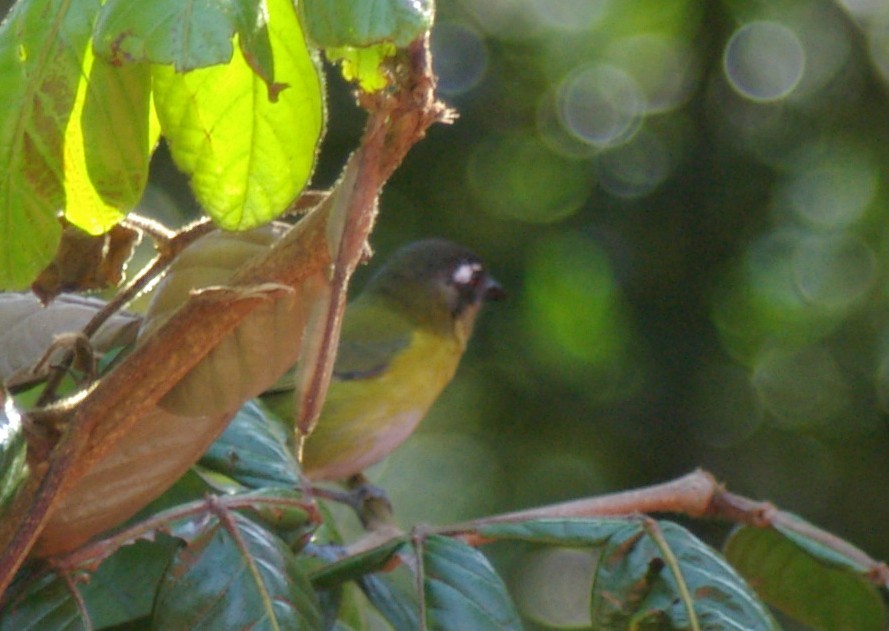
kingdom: Animalia
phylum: Chordata
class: Aves
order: Passeriformes
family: Passerellidae
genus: Chlorospingus
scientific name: Chlorospingus flavopectus
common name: Common chlorospingus
